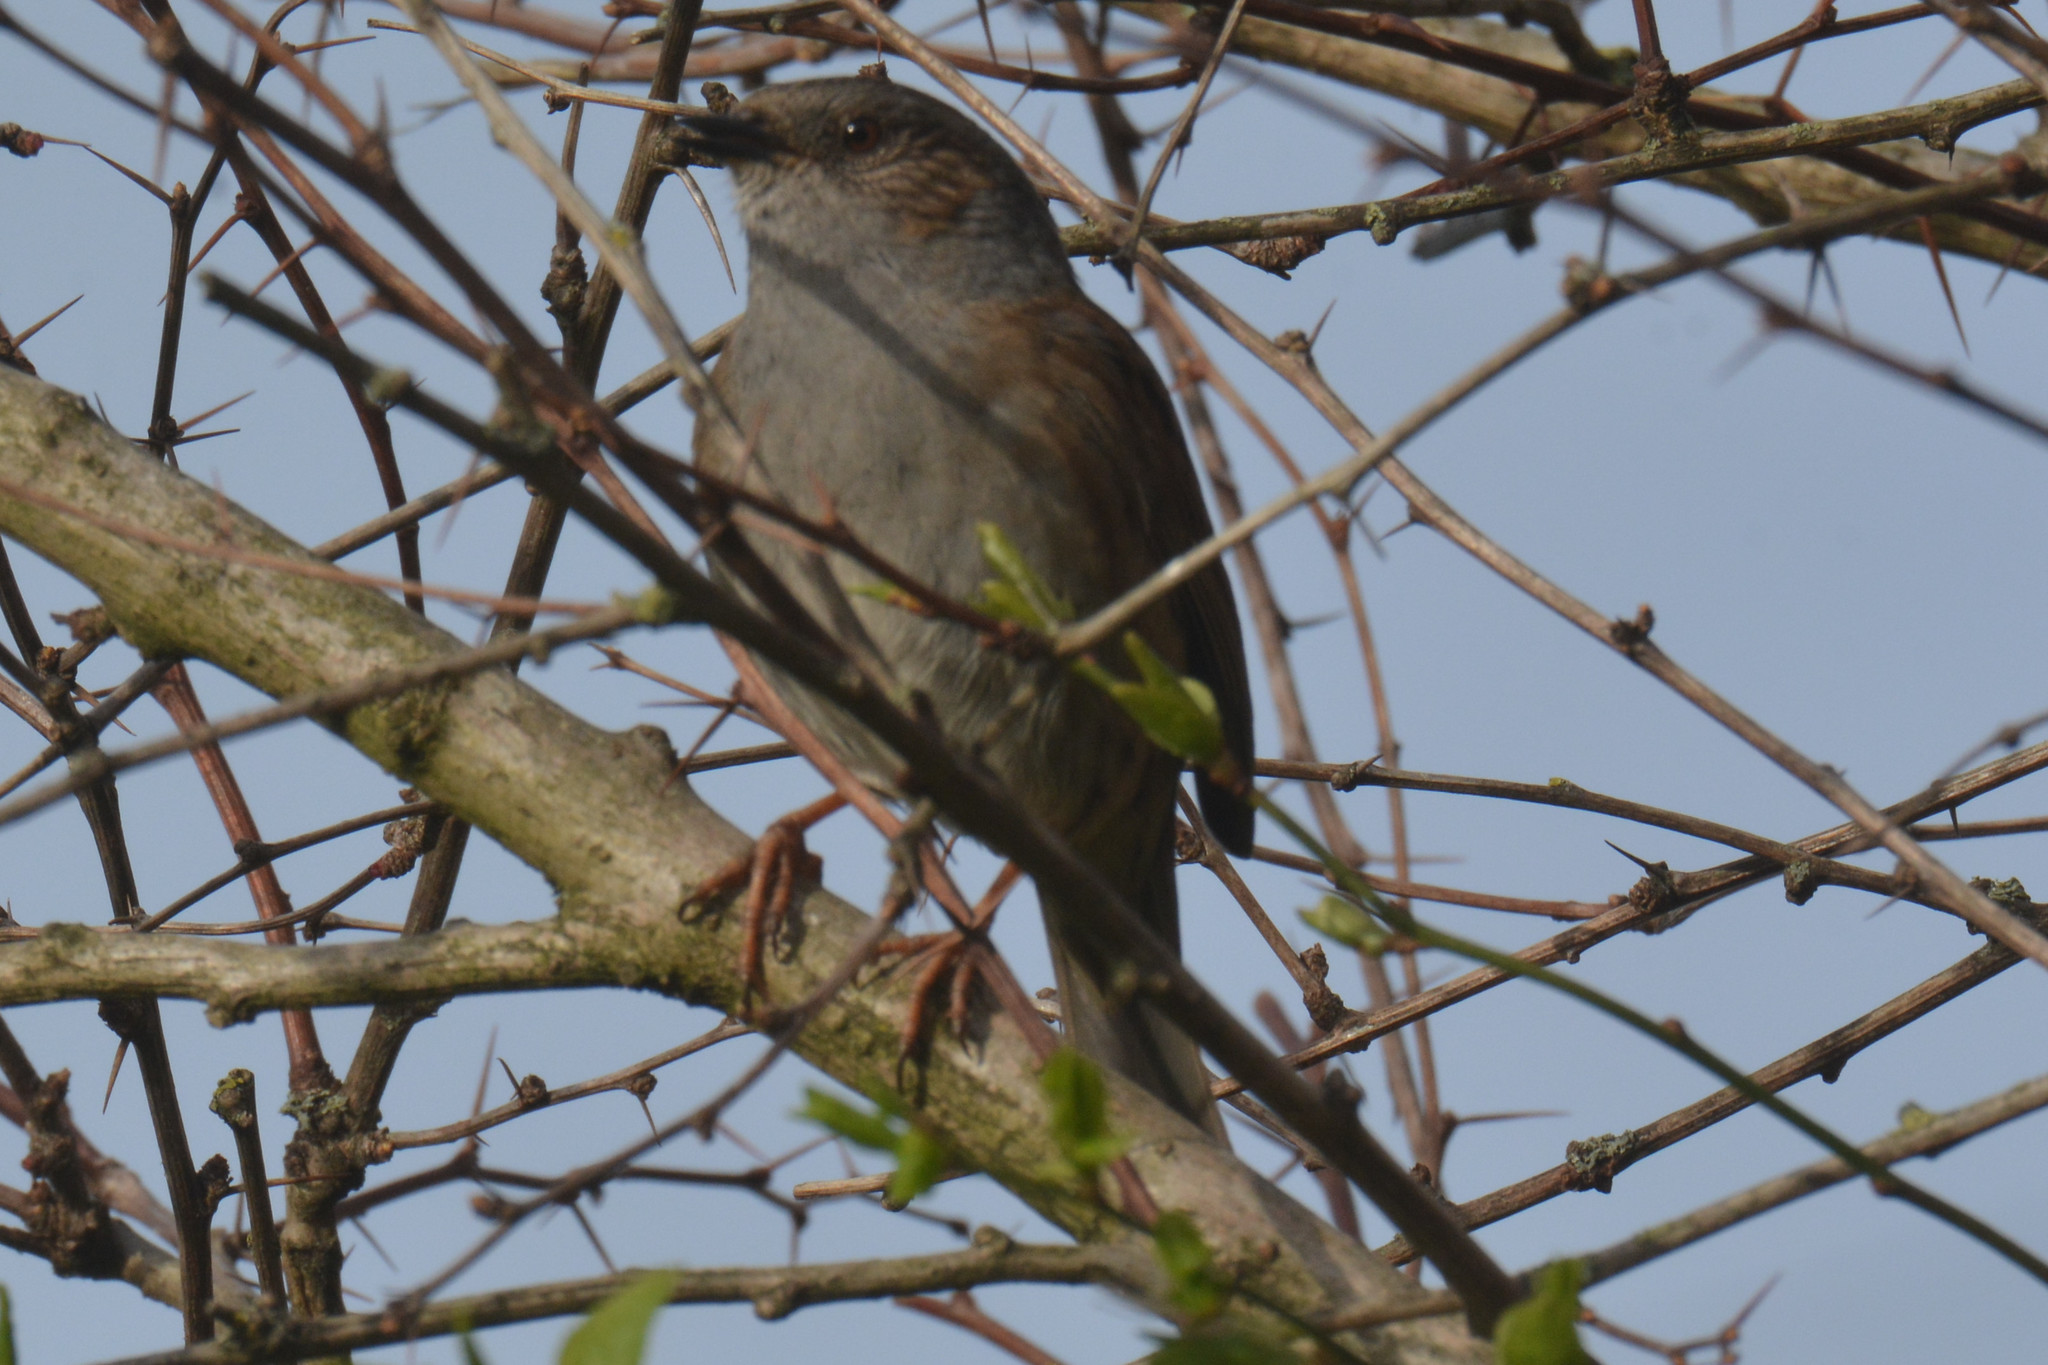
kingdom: Animalia
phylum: Chordata
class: Aves
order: Passeriformes
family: Prunellidae
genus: Prunella
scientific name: Prunella modularis
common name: Dunnock
